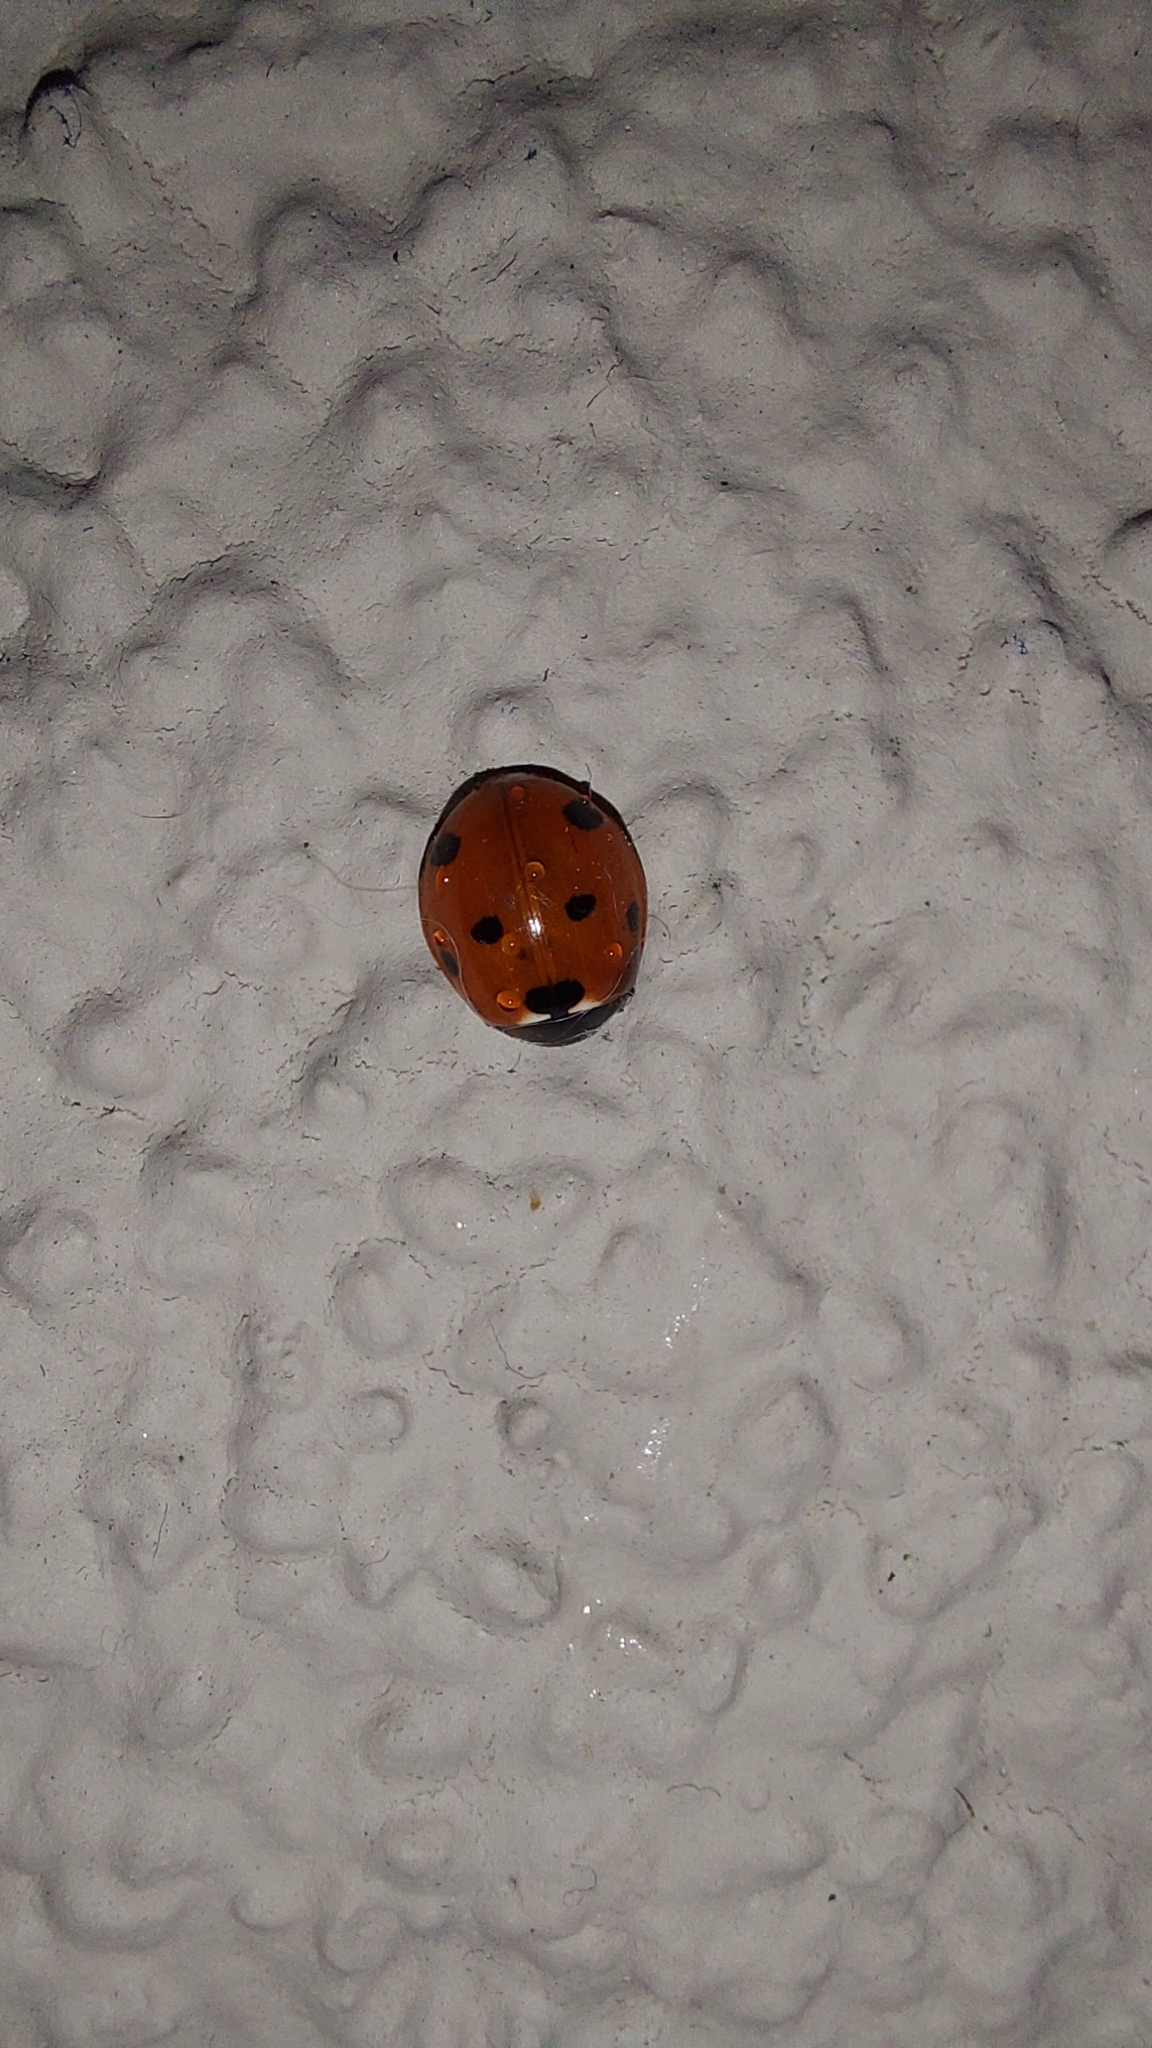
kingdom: Animalia
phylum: Arthropoda
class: Insecta
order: Coleoptera
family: Coccinellidae
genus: Coccinella
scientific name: Coccinella septempunctata
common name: Sevenspotted lady beetle
